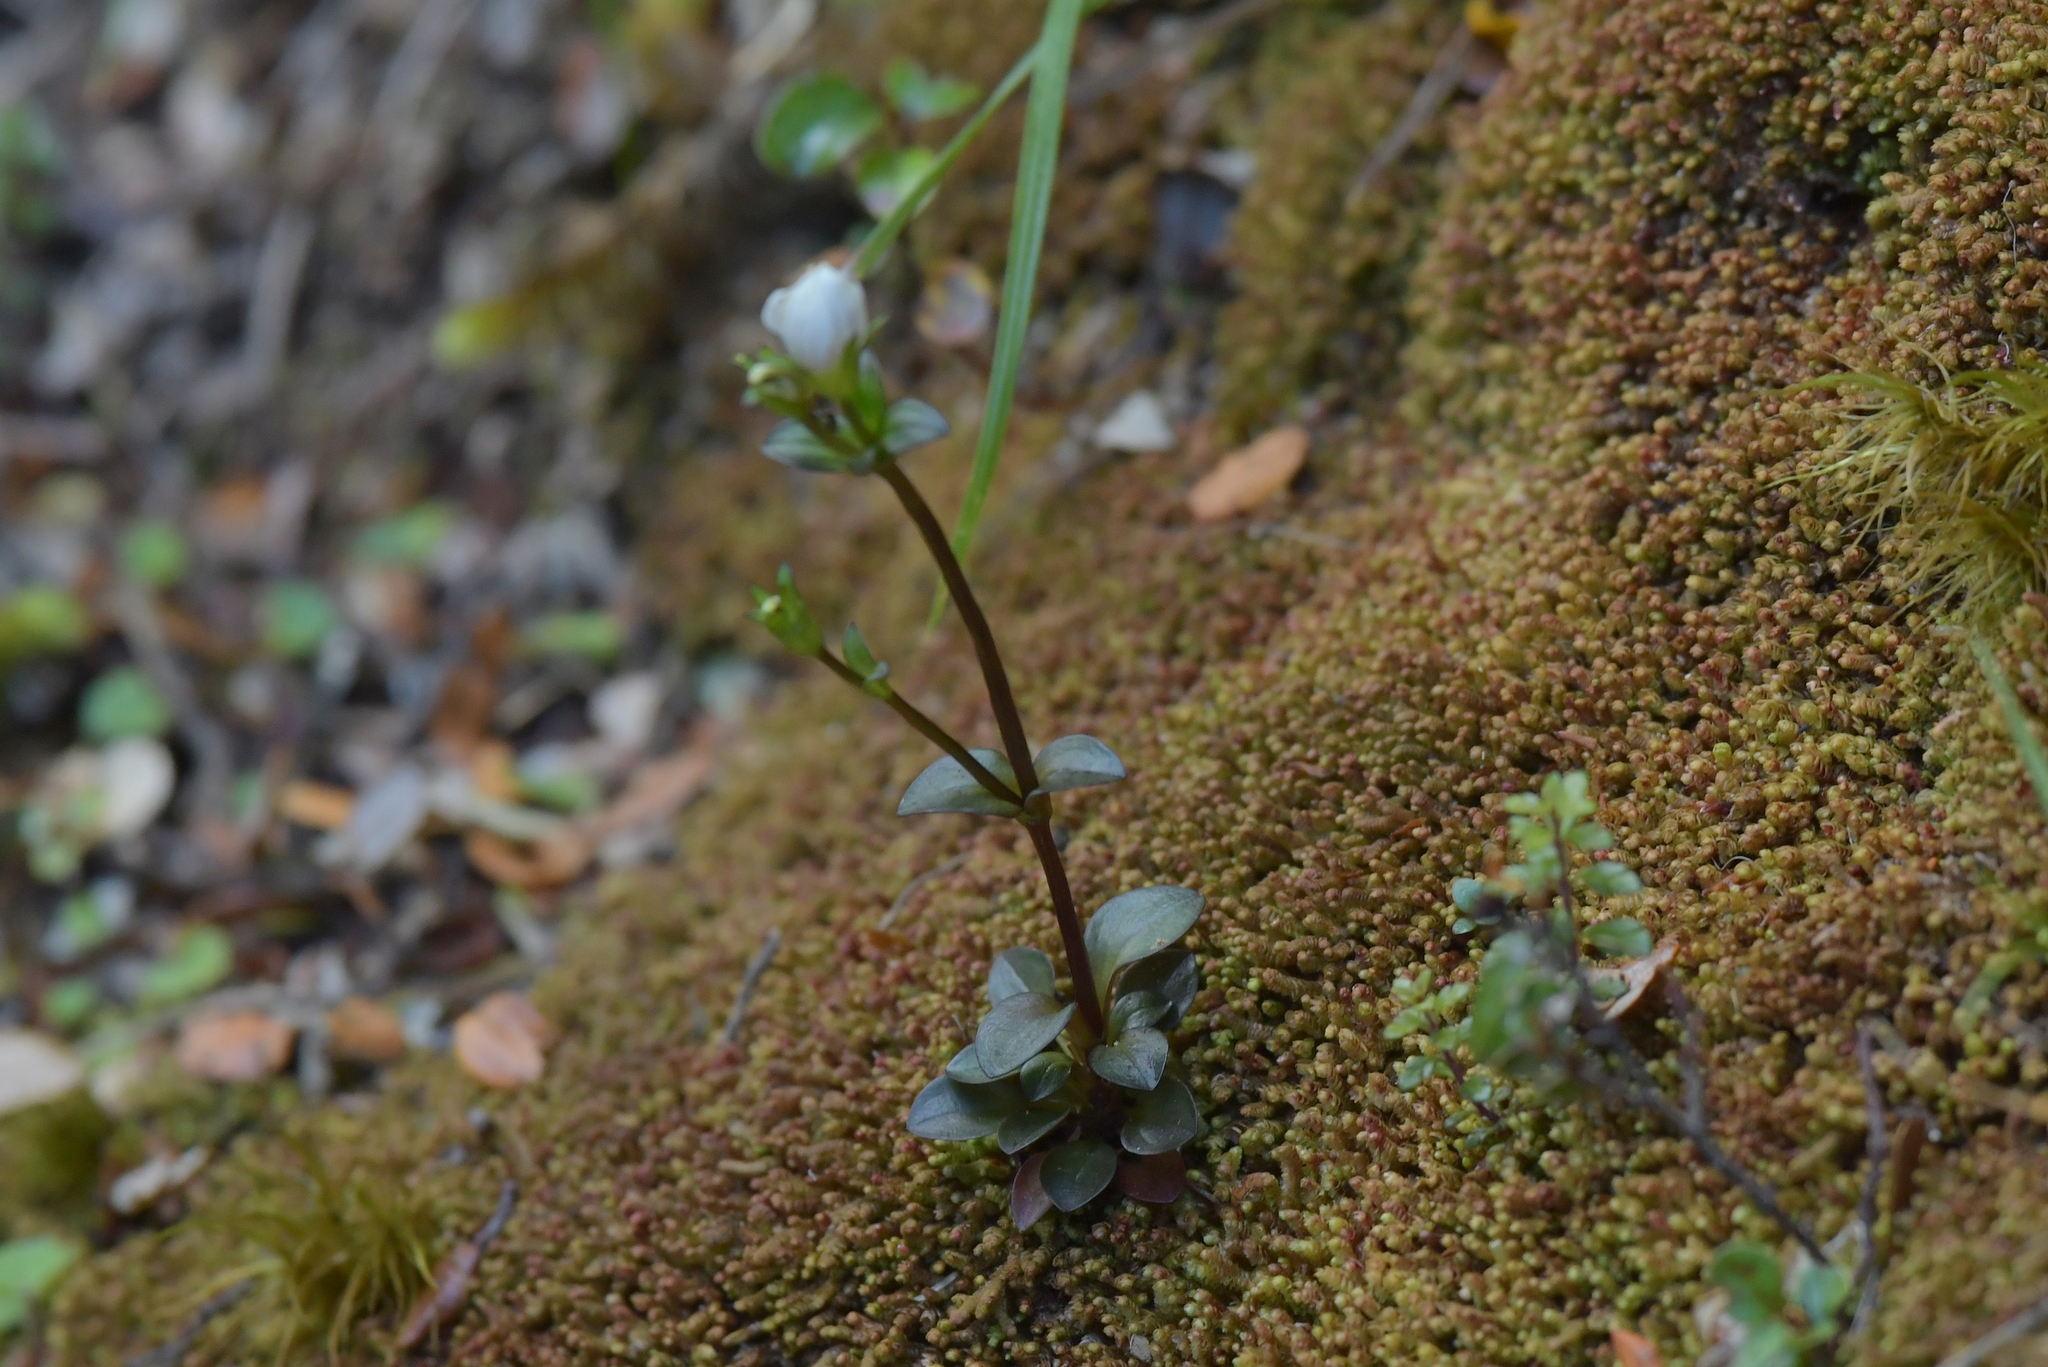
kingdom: Plantae
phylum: Tracheophyta
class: Magnoliopsida
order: Gentianales
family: Gentianaceae
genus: Gentianella
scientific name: Gentianella grisebachii
